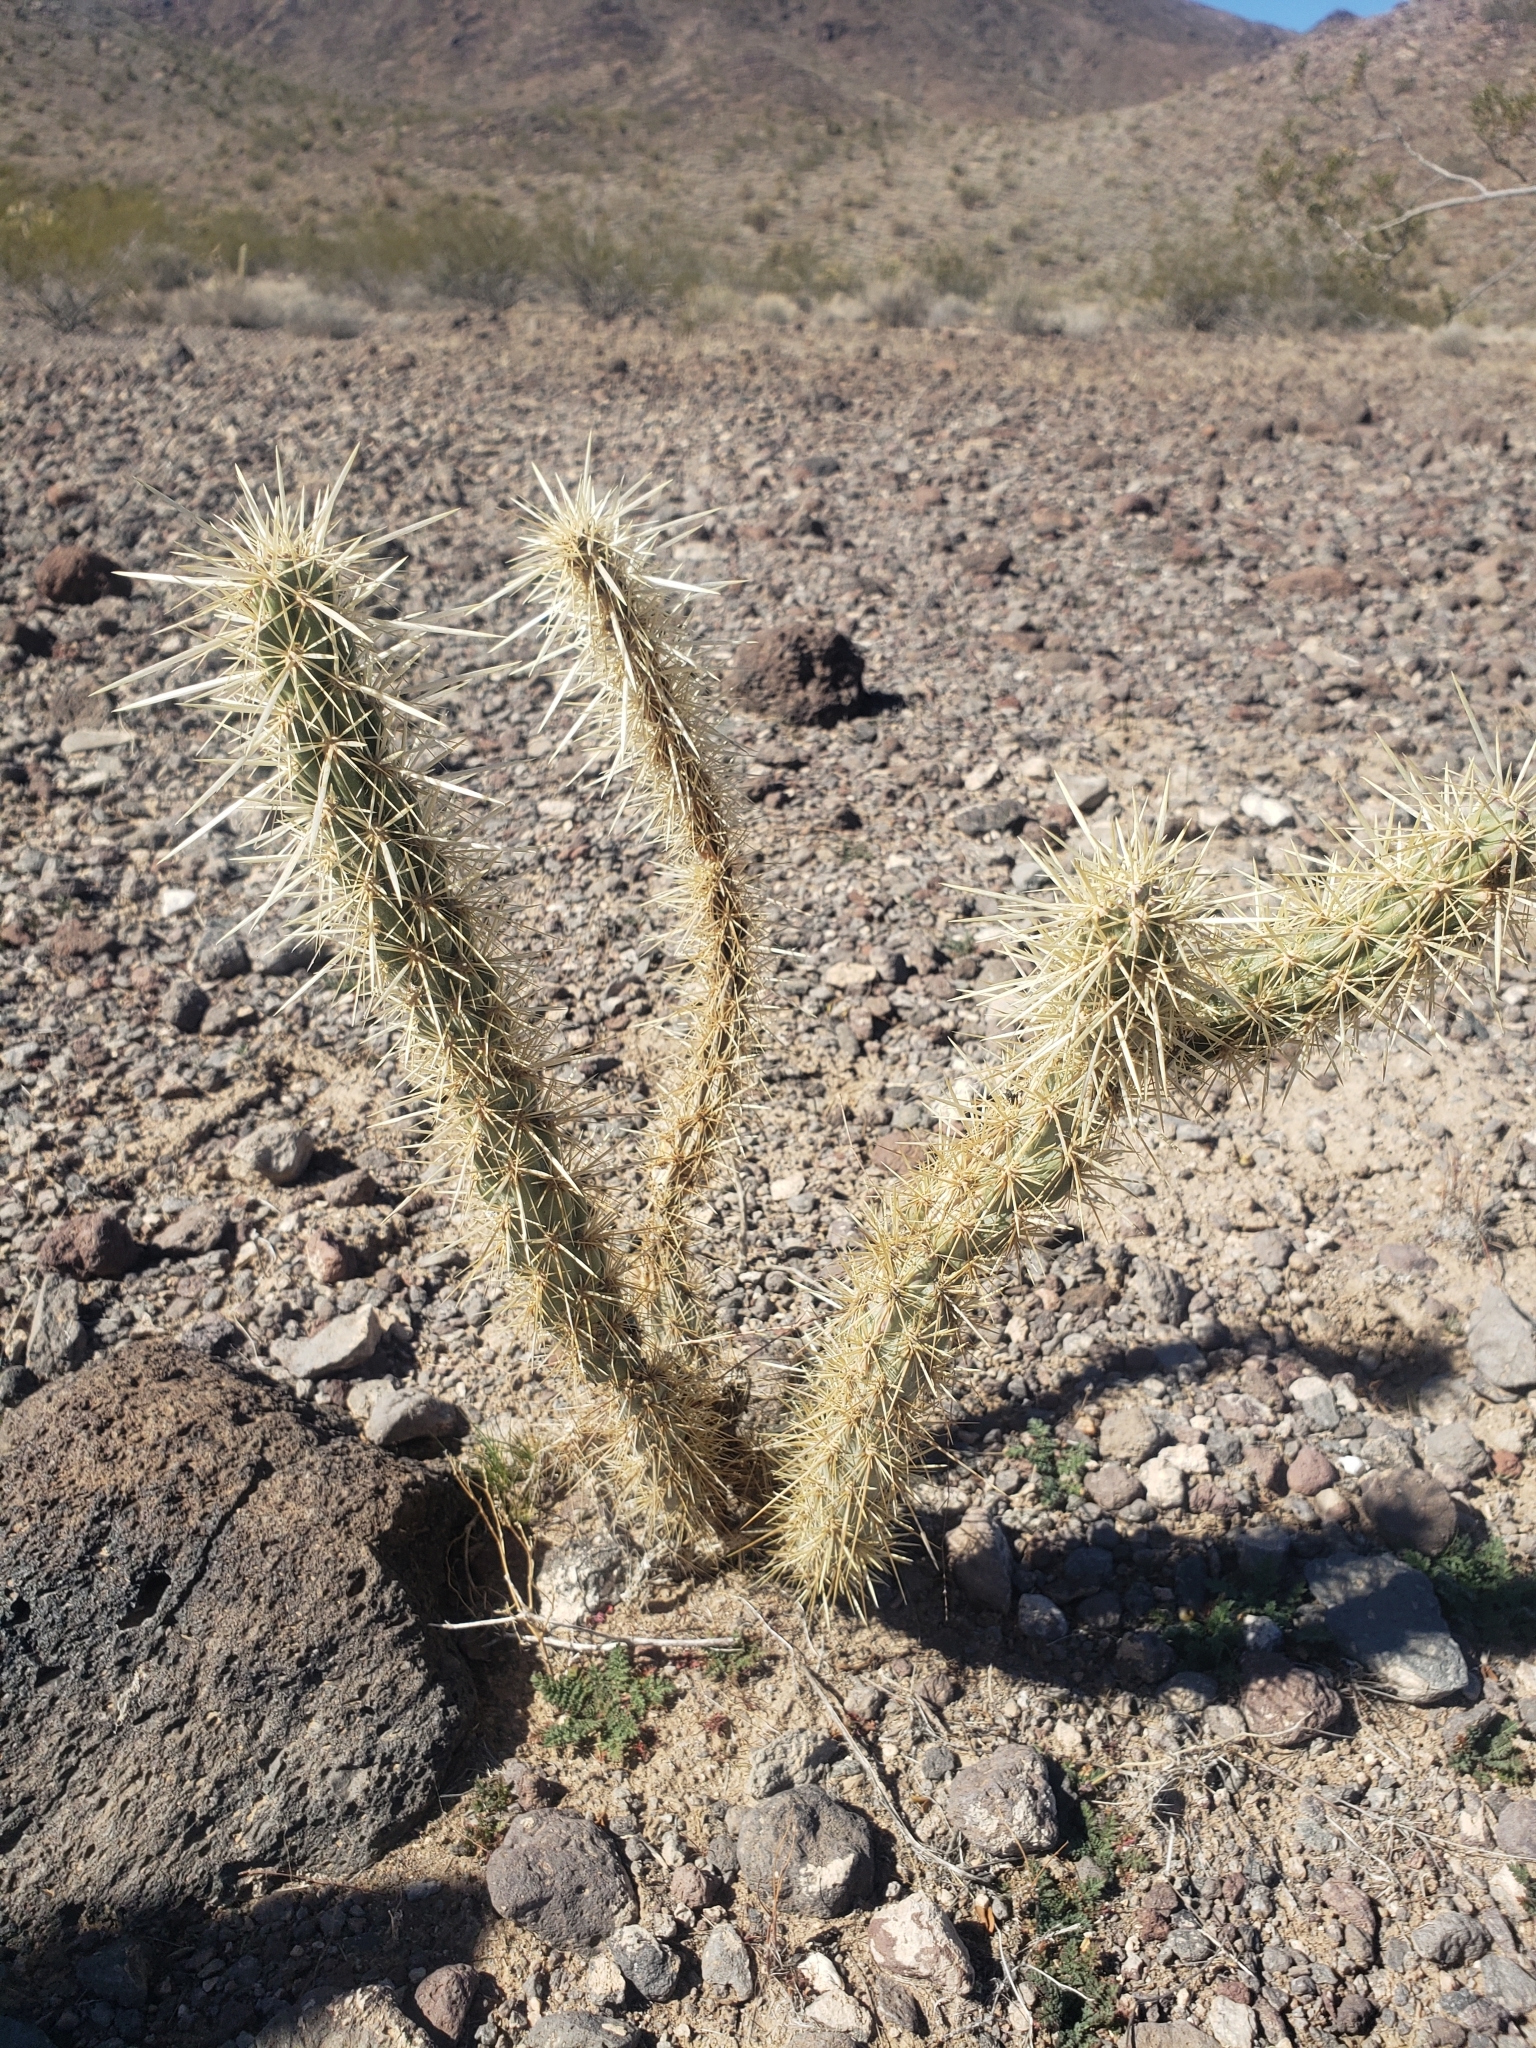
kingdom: Plantae
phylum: Tracheophyta
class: Magnoliopsida
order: Caryophyllales
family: Cactaceae
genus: Cylindropuntia
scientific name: Cylindropuntia acanthocarpa
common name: Buckhorn cholla
